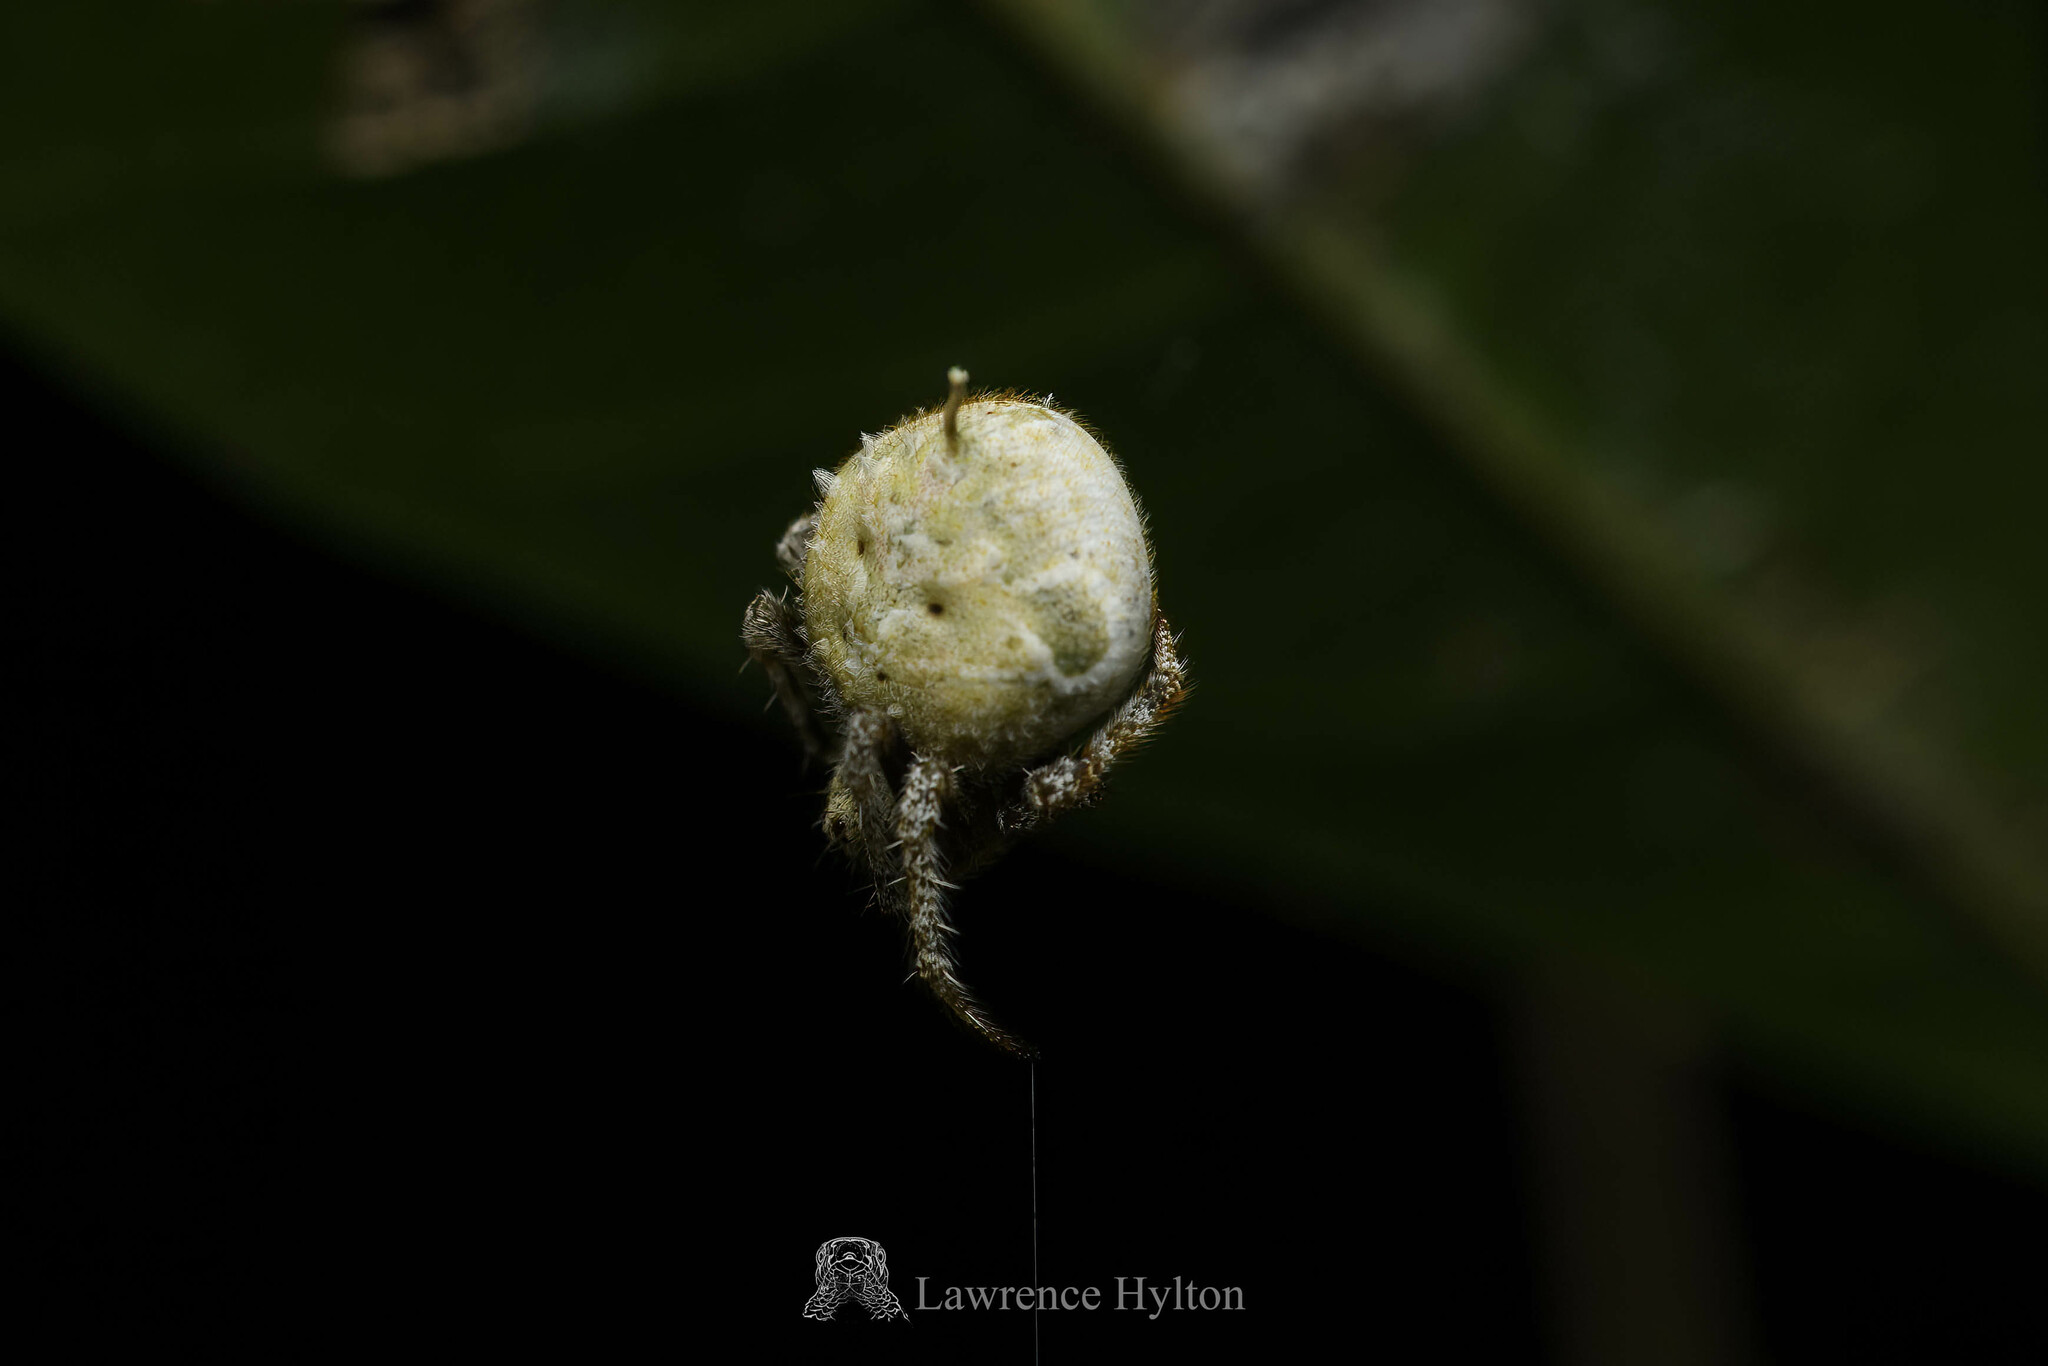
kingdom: Animalia
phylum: Arthropoda
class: Arachnida
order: Araneae
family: Araneidae
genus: Eriovixia
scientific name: Eriovixia laglaizei
